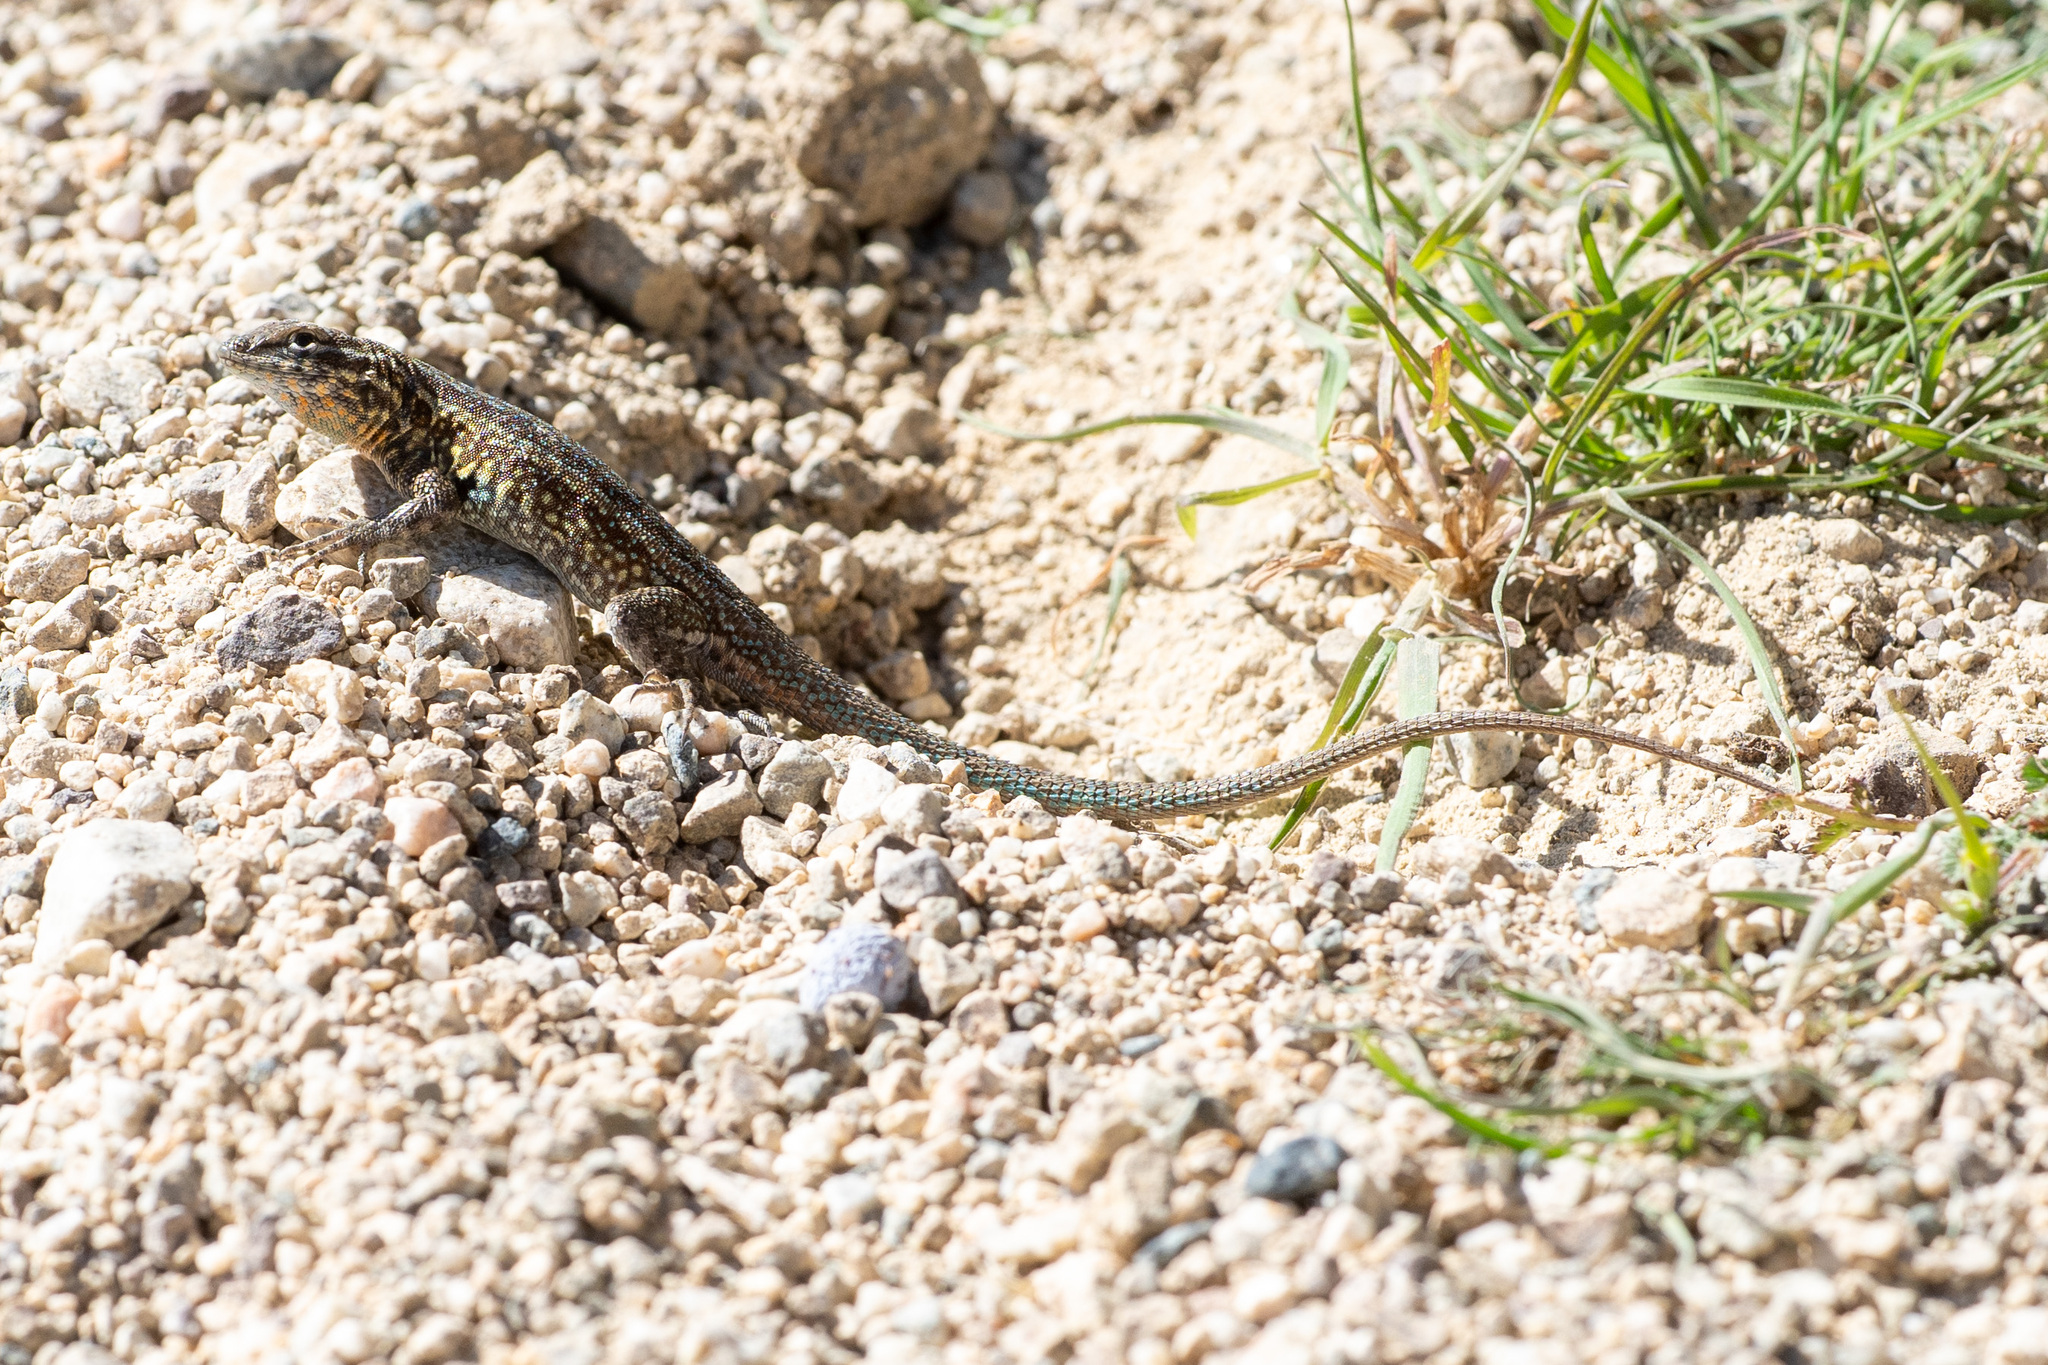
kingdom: Animalia
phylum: Chordata
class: Squamata
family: Phrynosomatidae
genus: Uta
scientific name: Uta stansburiana
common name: Side-blotched lizard
